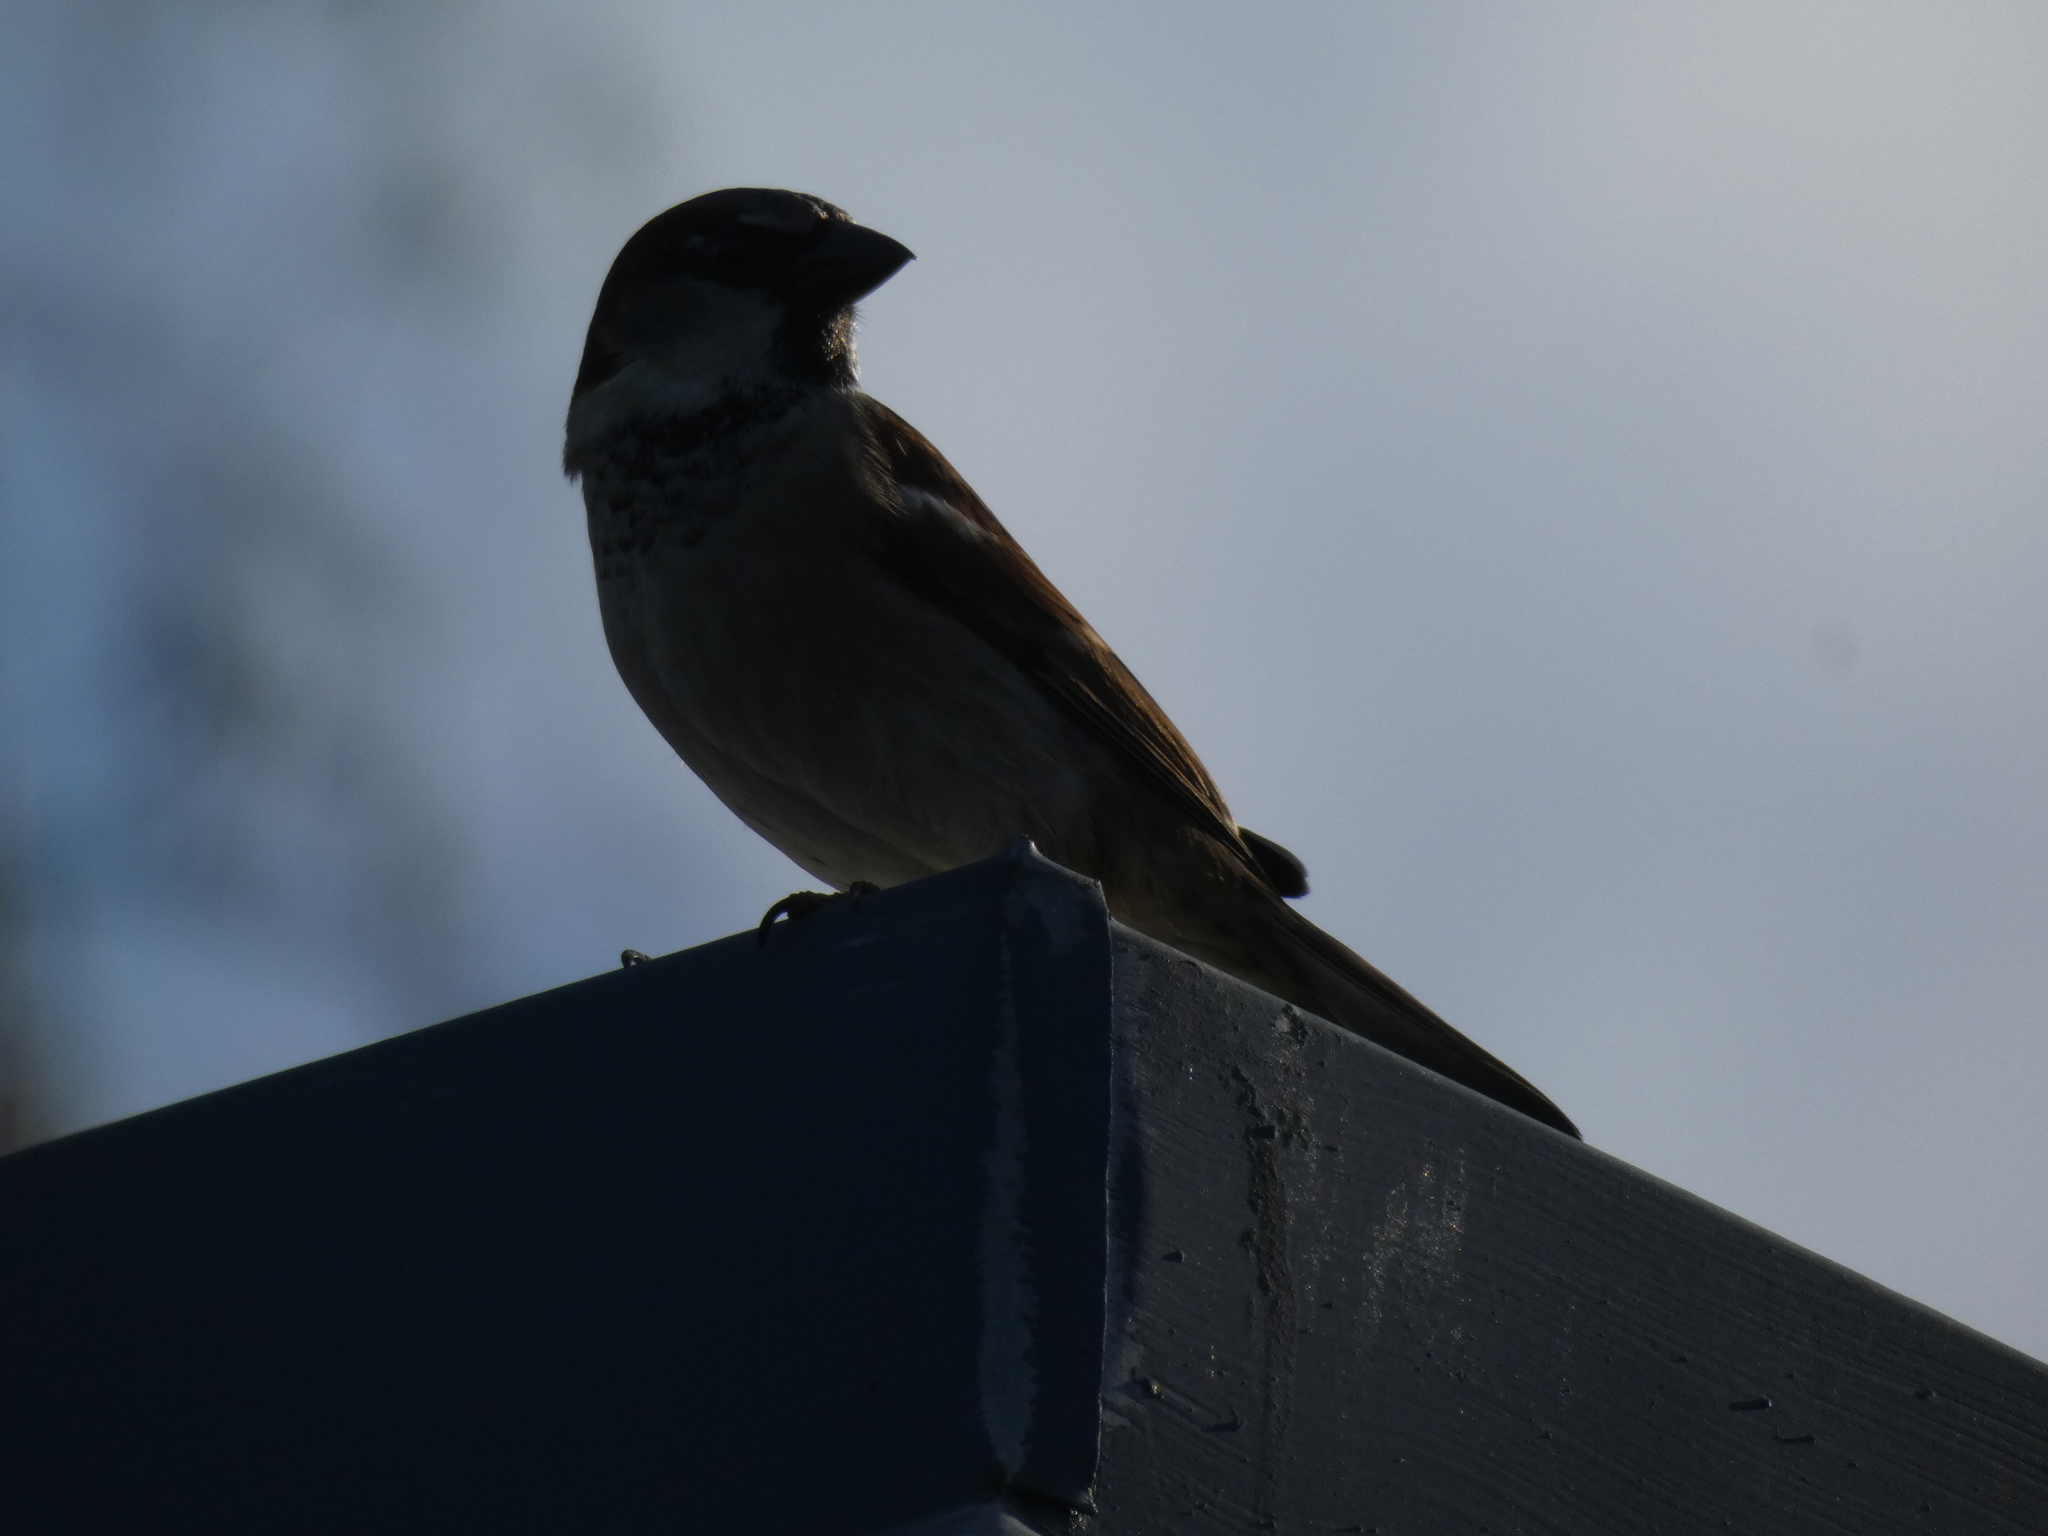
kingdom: Animalia
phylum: Chordata
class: Aves
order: Passeriformes
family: Passeridae
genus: Passer
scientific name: Passer domesticus
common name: House sparrow
